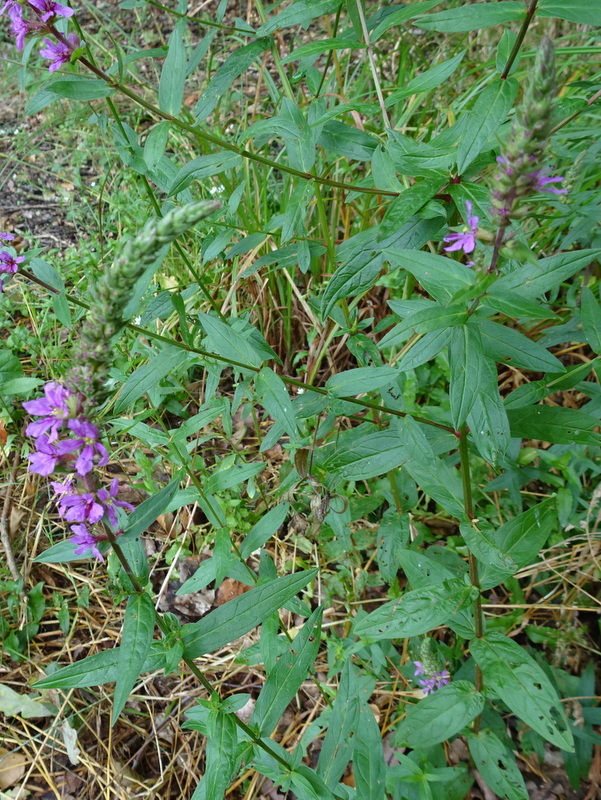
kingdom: Plantae
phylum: Tracheophyta
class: Magnoliopsida
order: Myrtales
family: Lythraceae
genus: Lythrum
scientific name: Lythrum salicaria
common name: Purple loosestrife
